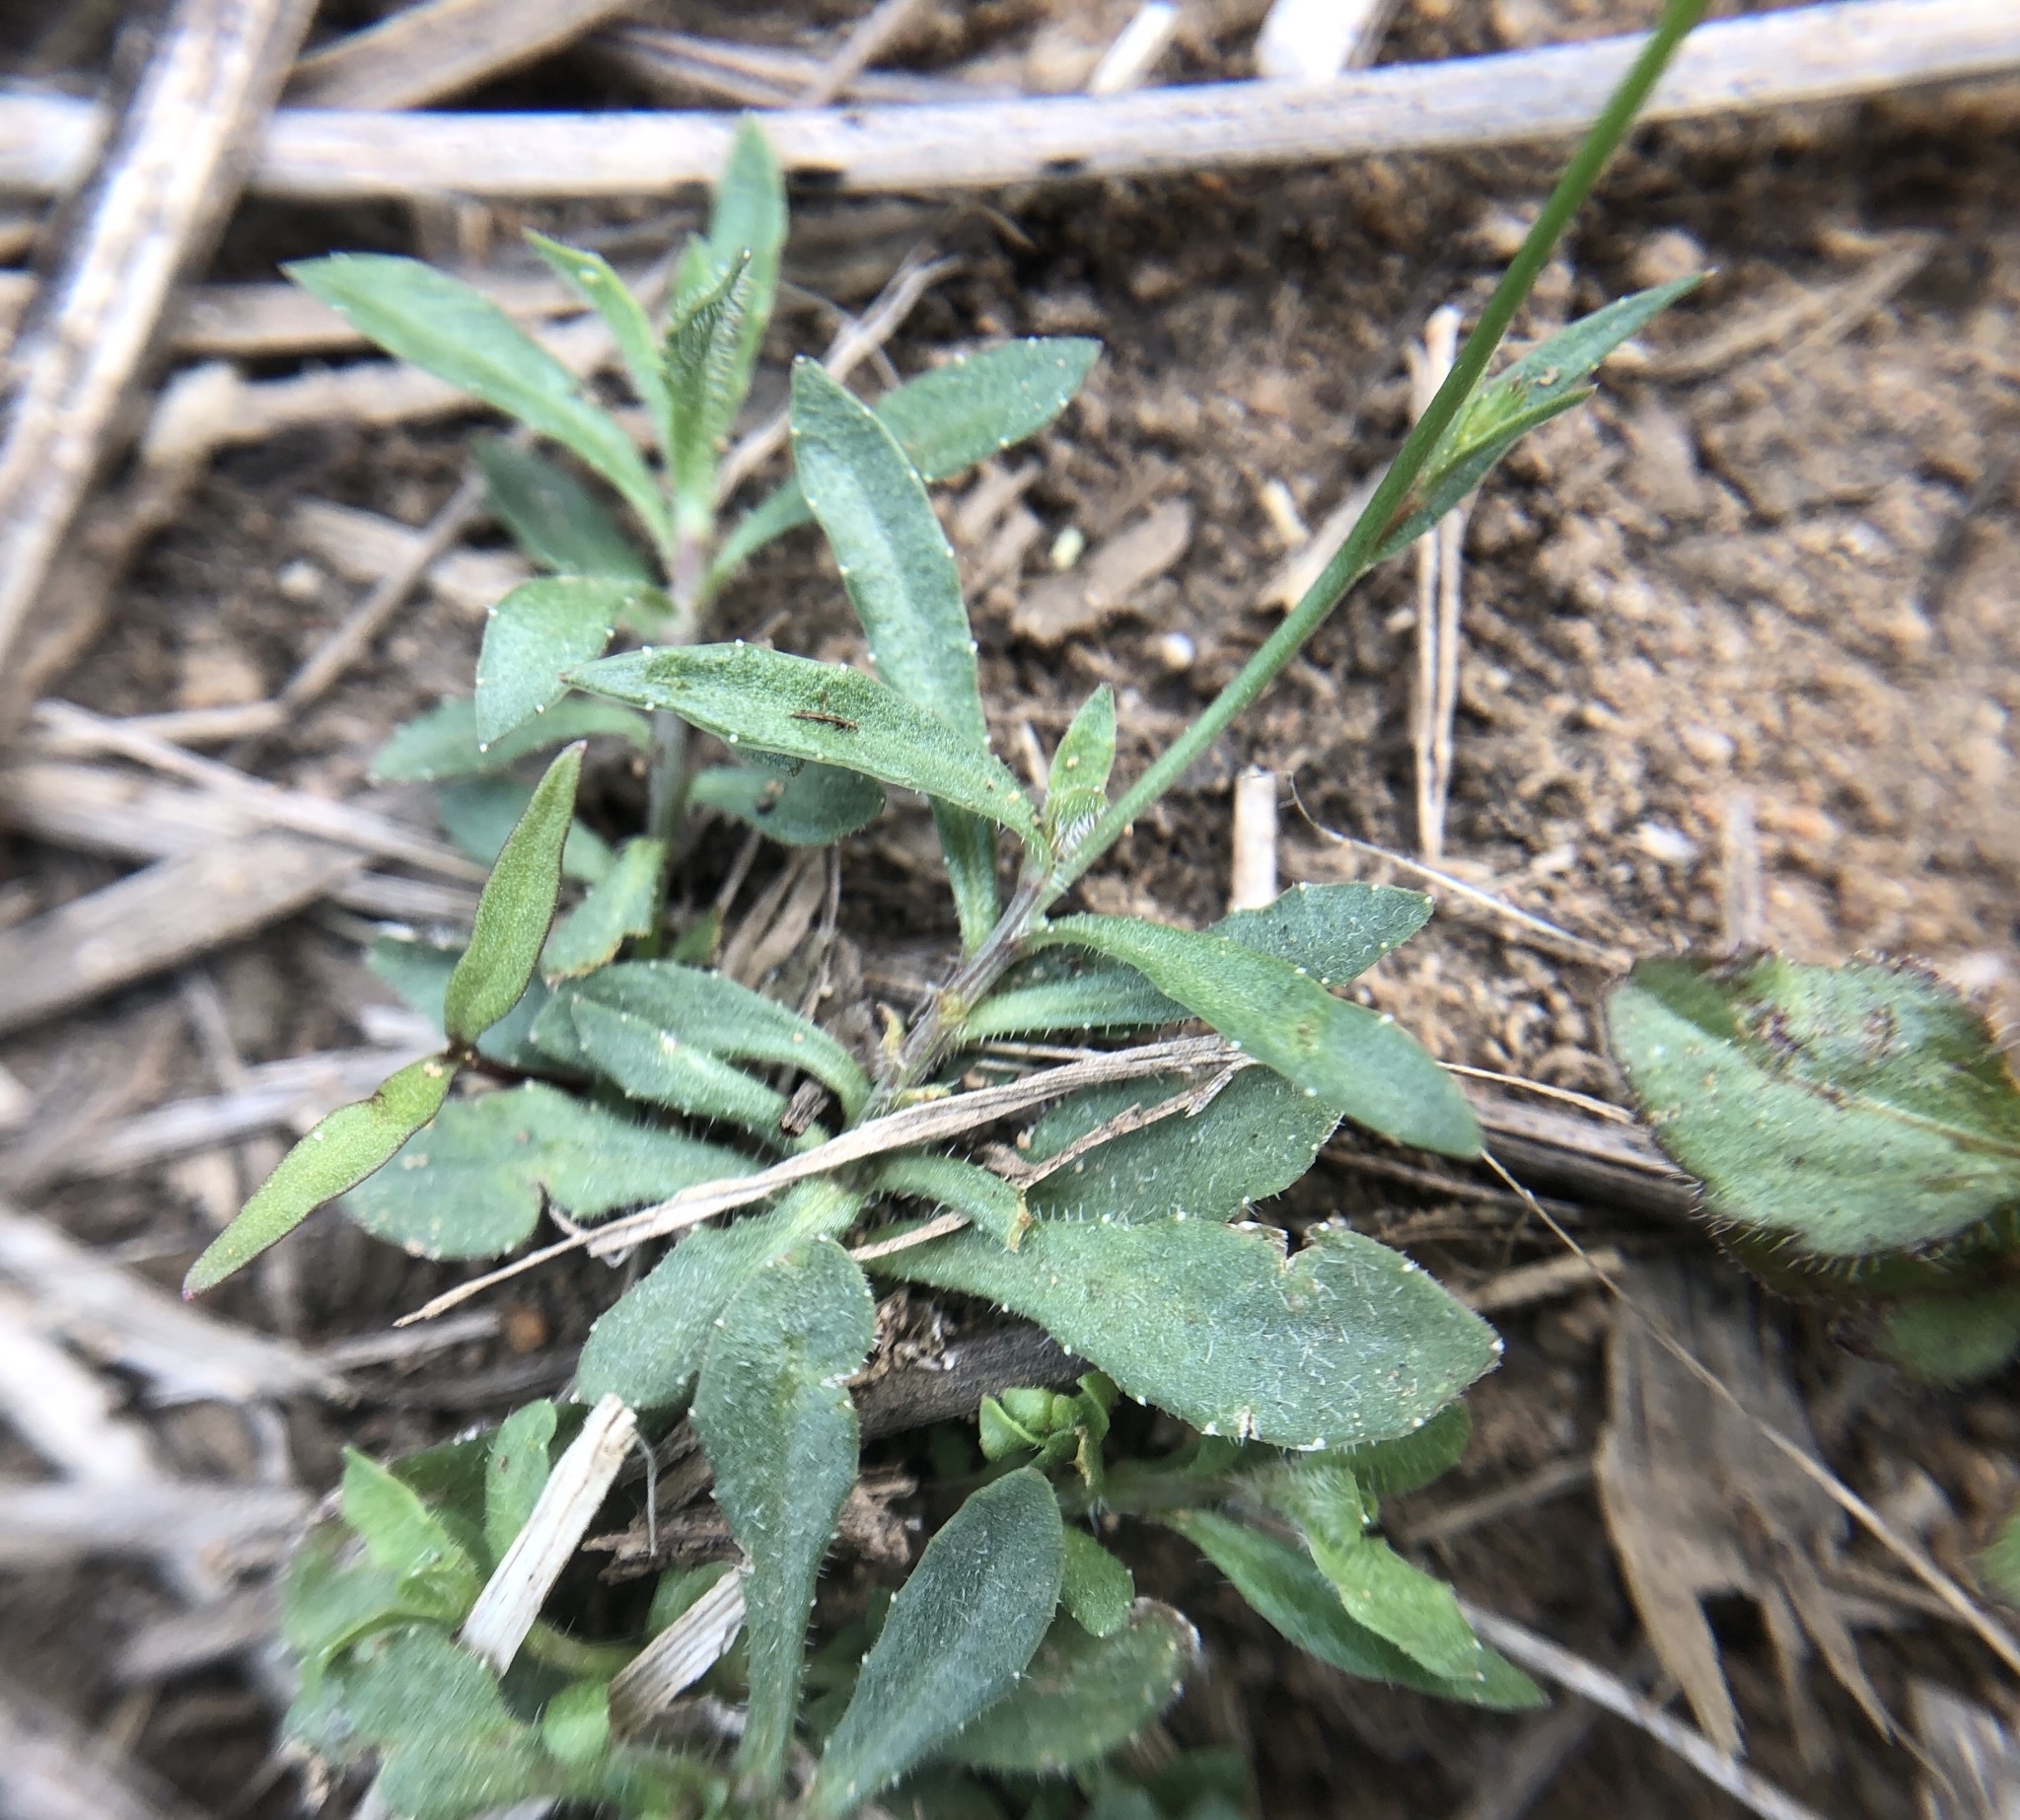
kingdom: Plantae
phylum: Tracheophyta
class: Magnoliopsida
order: Asterales
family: Campanulaceae
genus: Wahlenbergia
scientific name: Wahlenbergia marginata
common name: Southern rockbell
